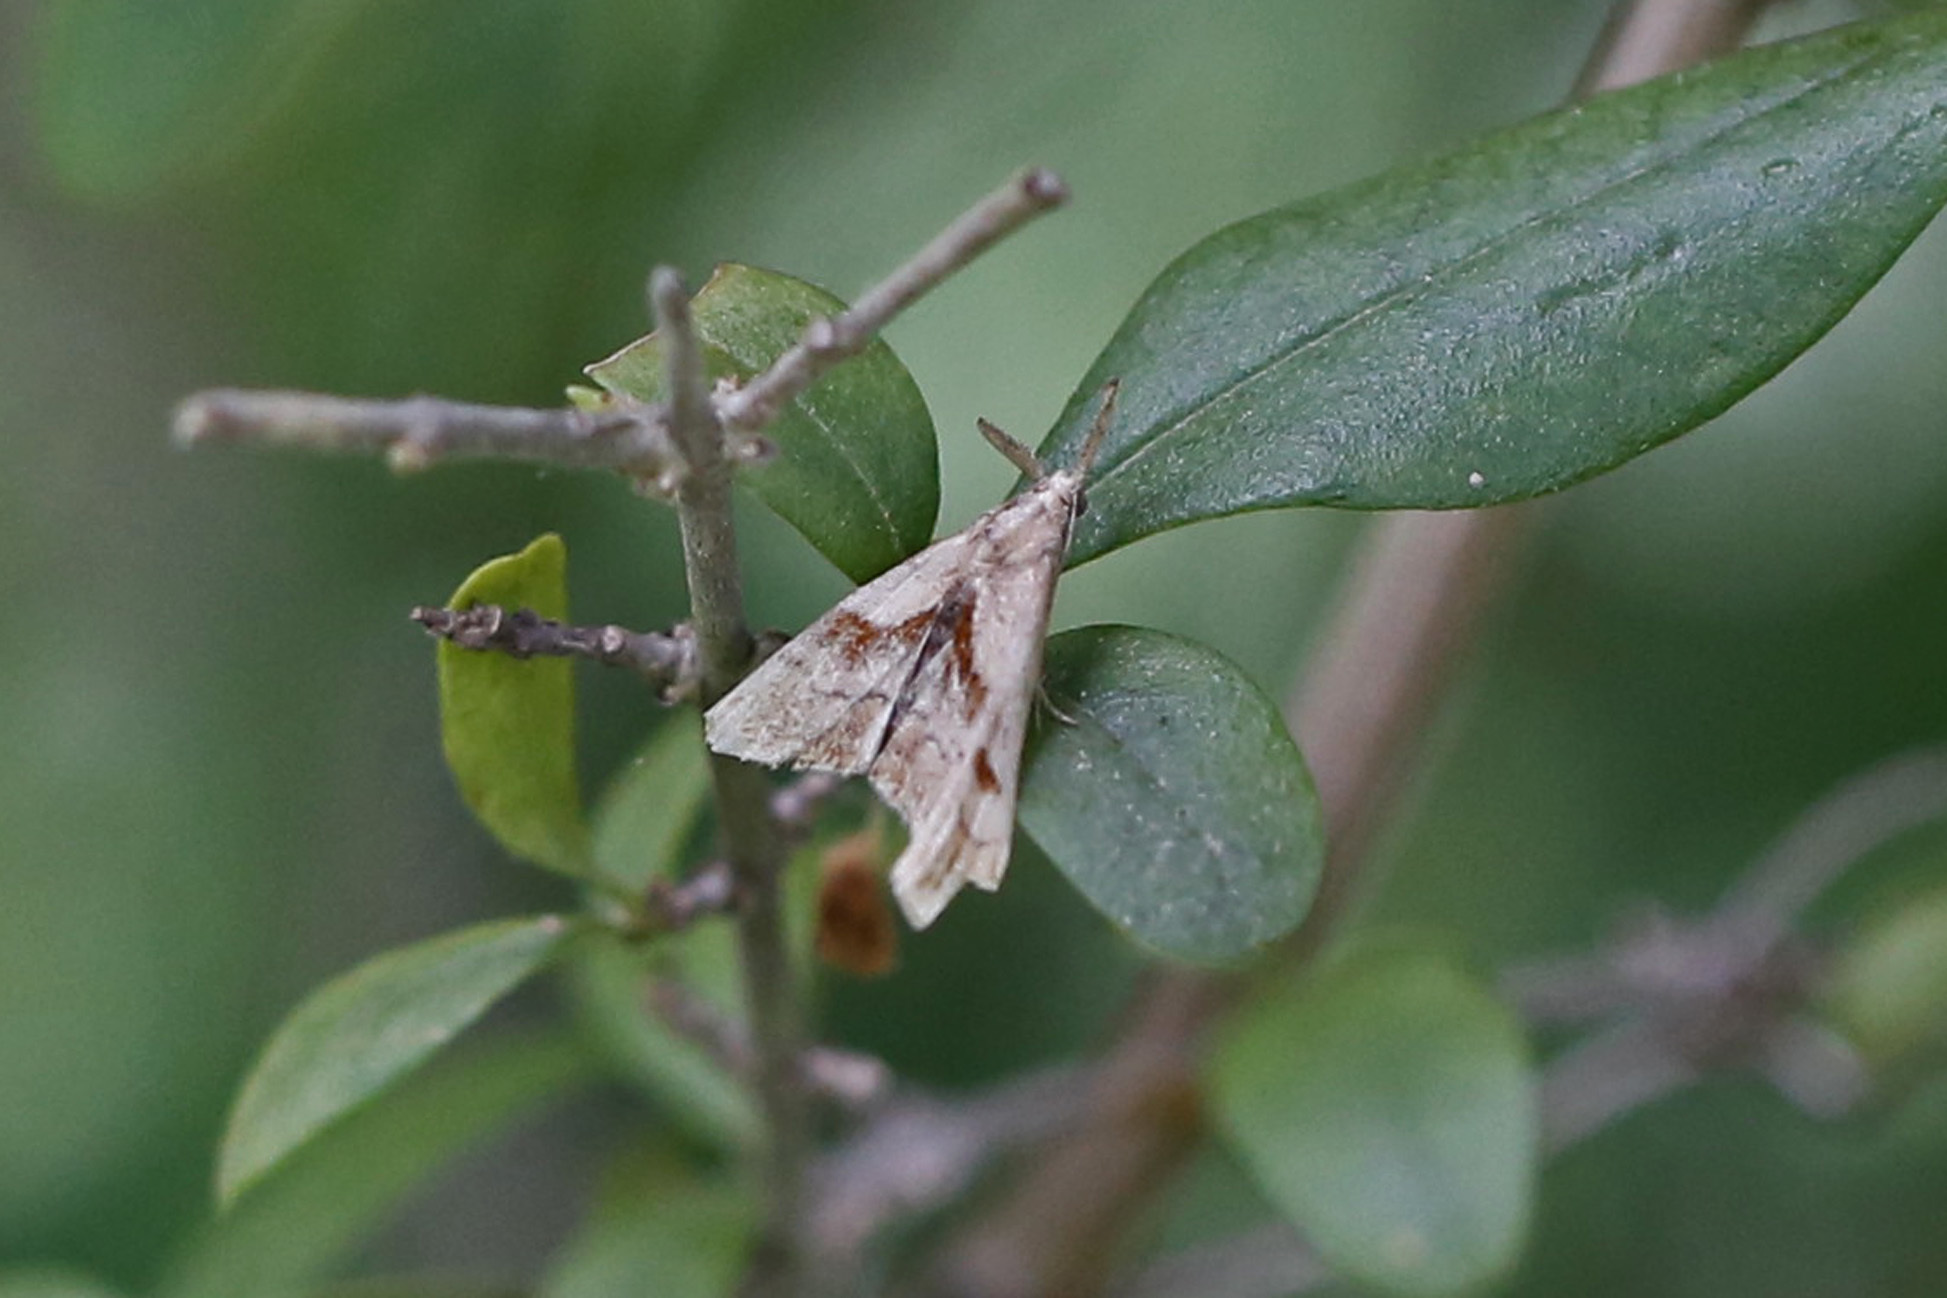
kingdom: Animalia
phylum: Arthropoda
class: Insecta
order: Lepidoptera
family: Erebidae
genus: Palthis
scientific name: Palthis angulalis
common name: Dark-spotted palthis moth
